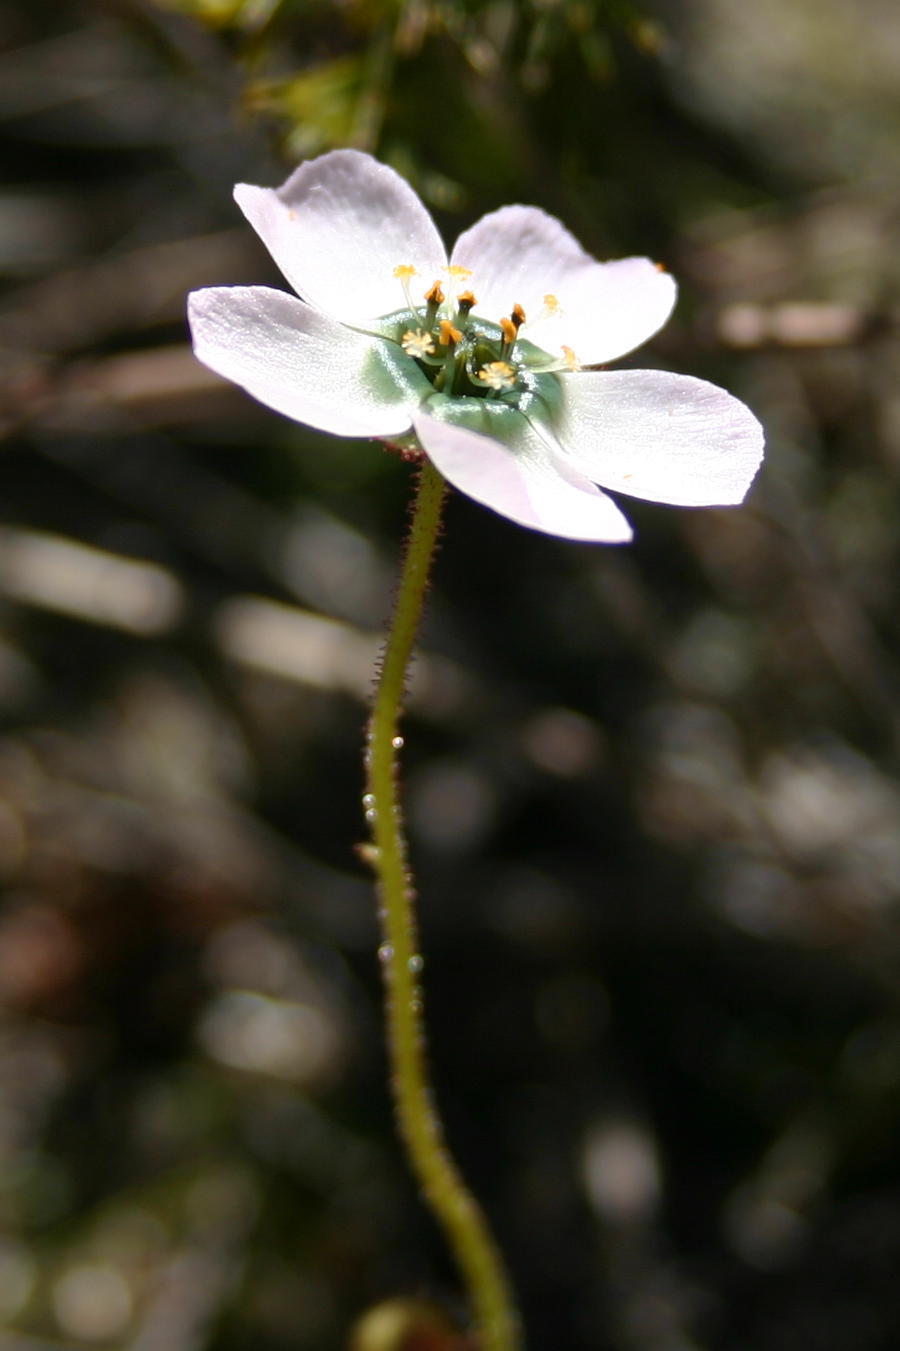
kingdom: Plantae
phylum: Tracheophyta
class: Magnoliopsida
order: Caryophyllales
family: Droseraceae
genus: Drosera
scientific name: Drosera cistiflora
